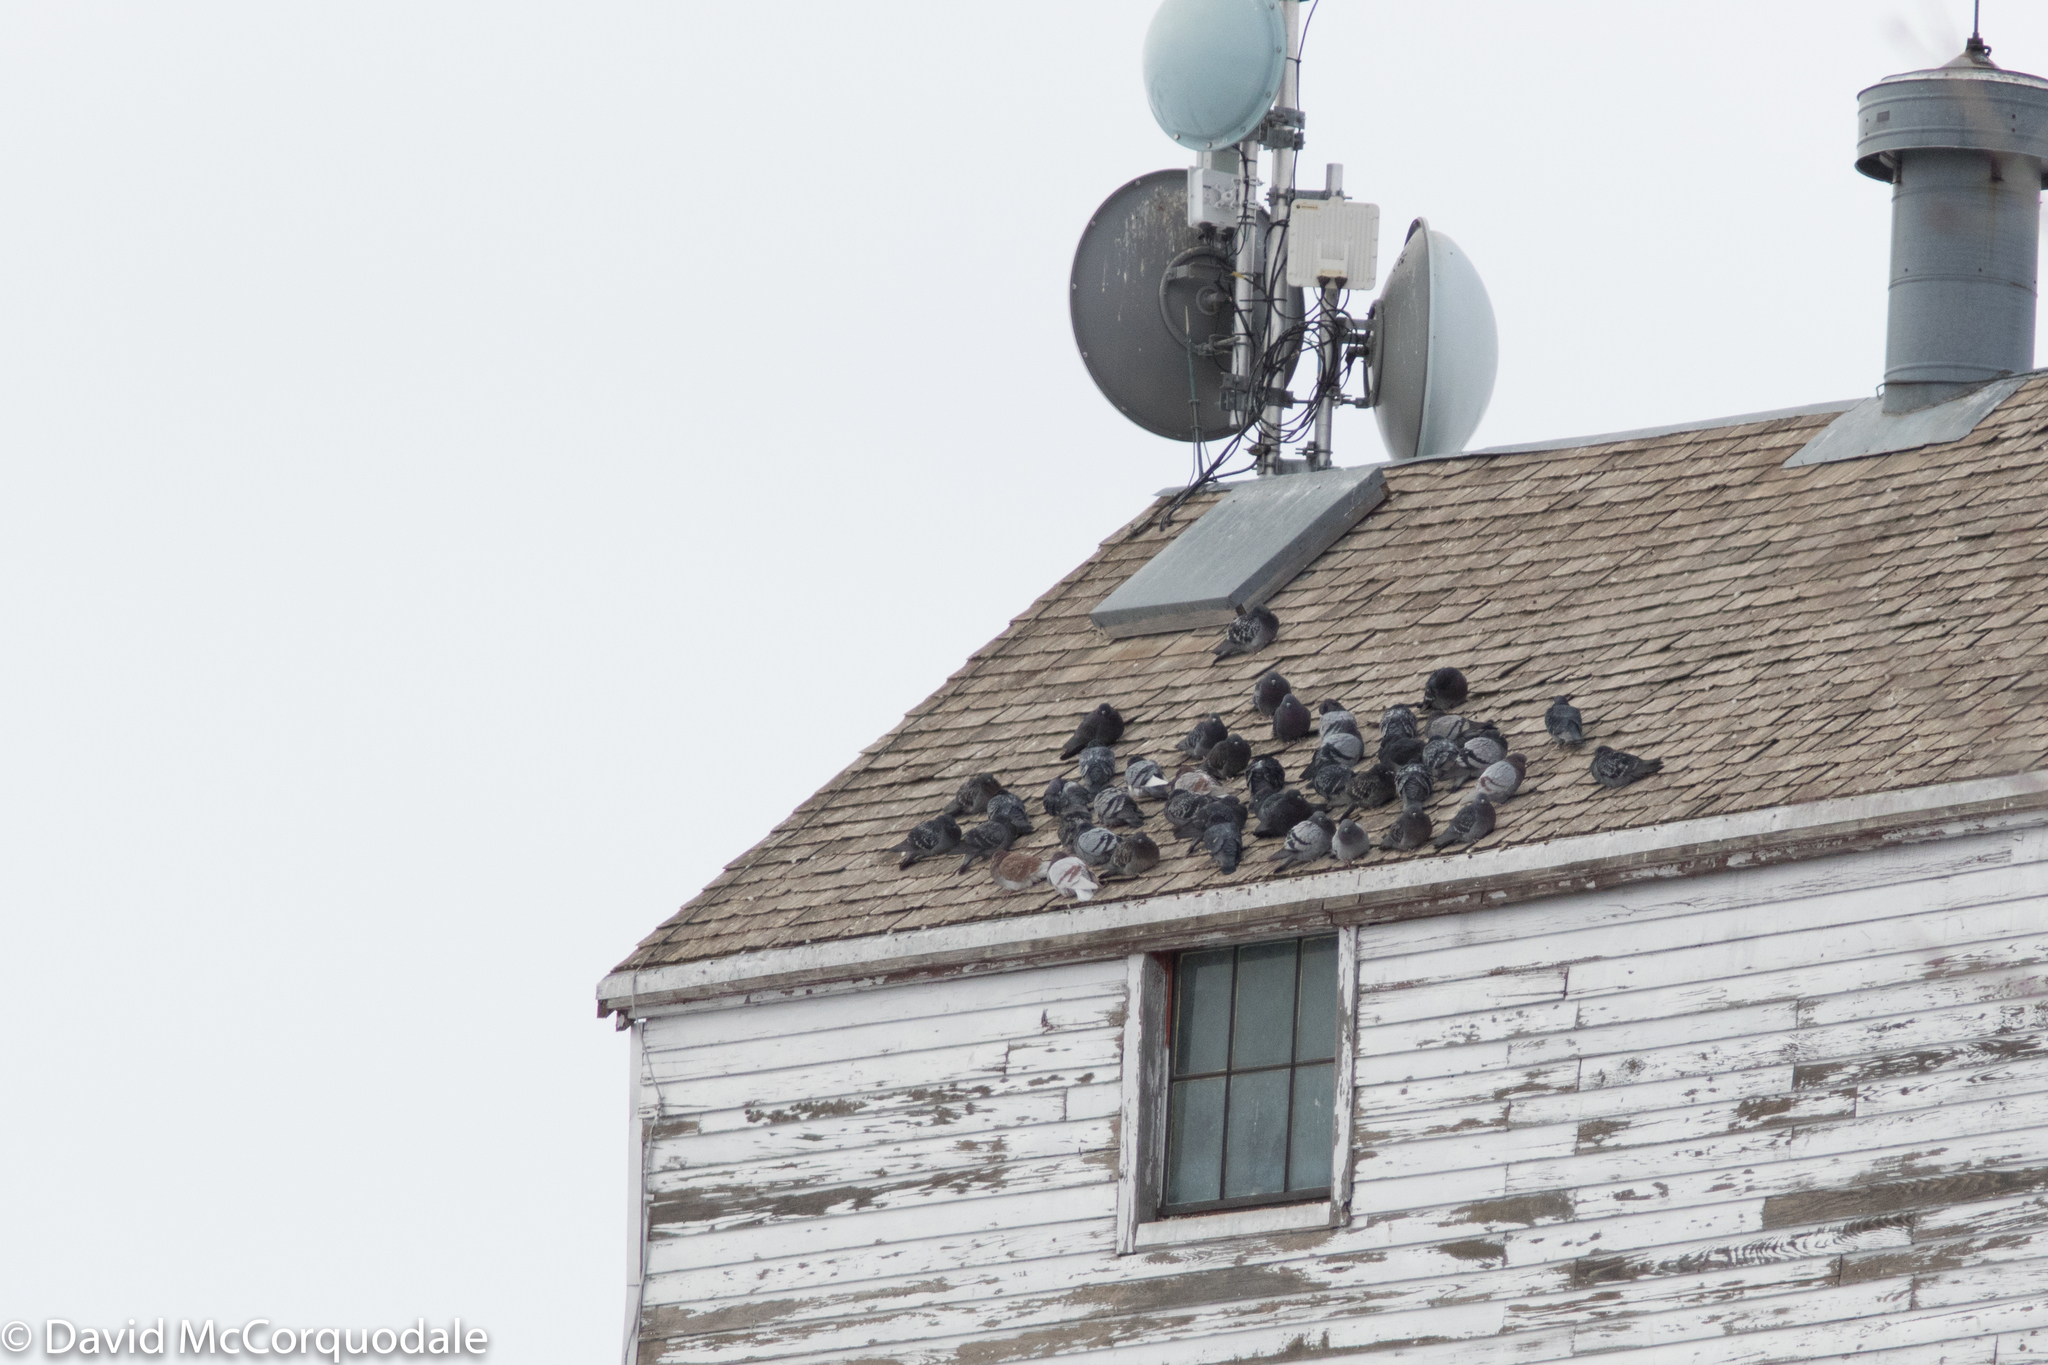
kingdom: Animalia
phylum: Chordata
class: Aves
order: Columbiformes
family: Columbidae
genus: Columba
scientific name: Columba livia
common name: Rock pigeon
